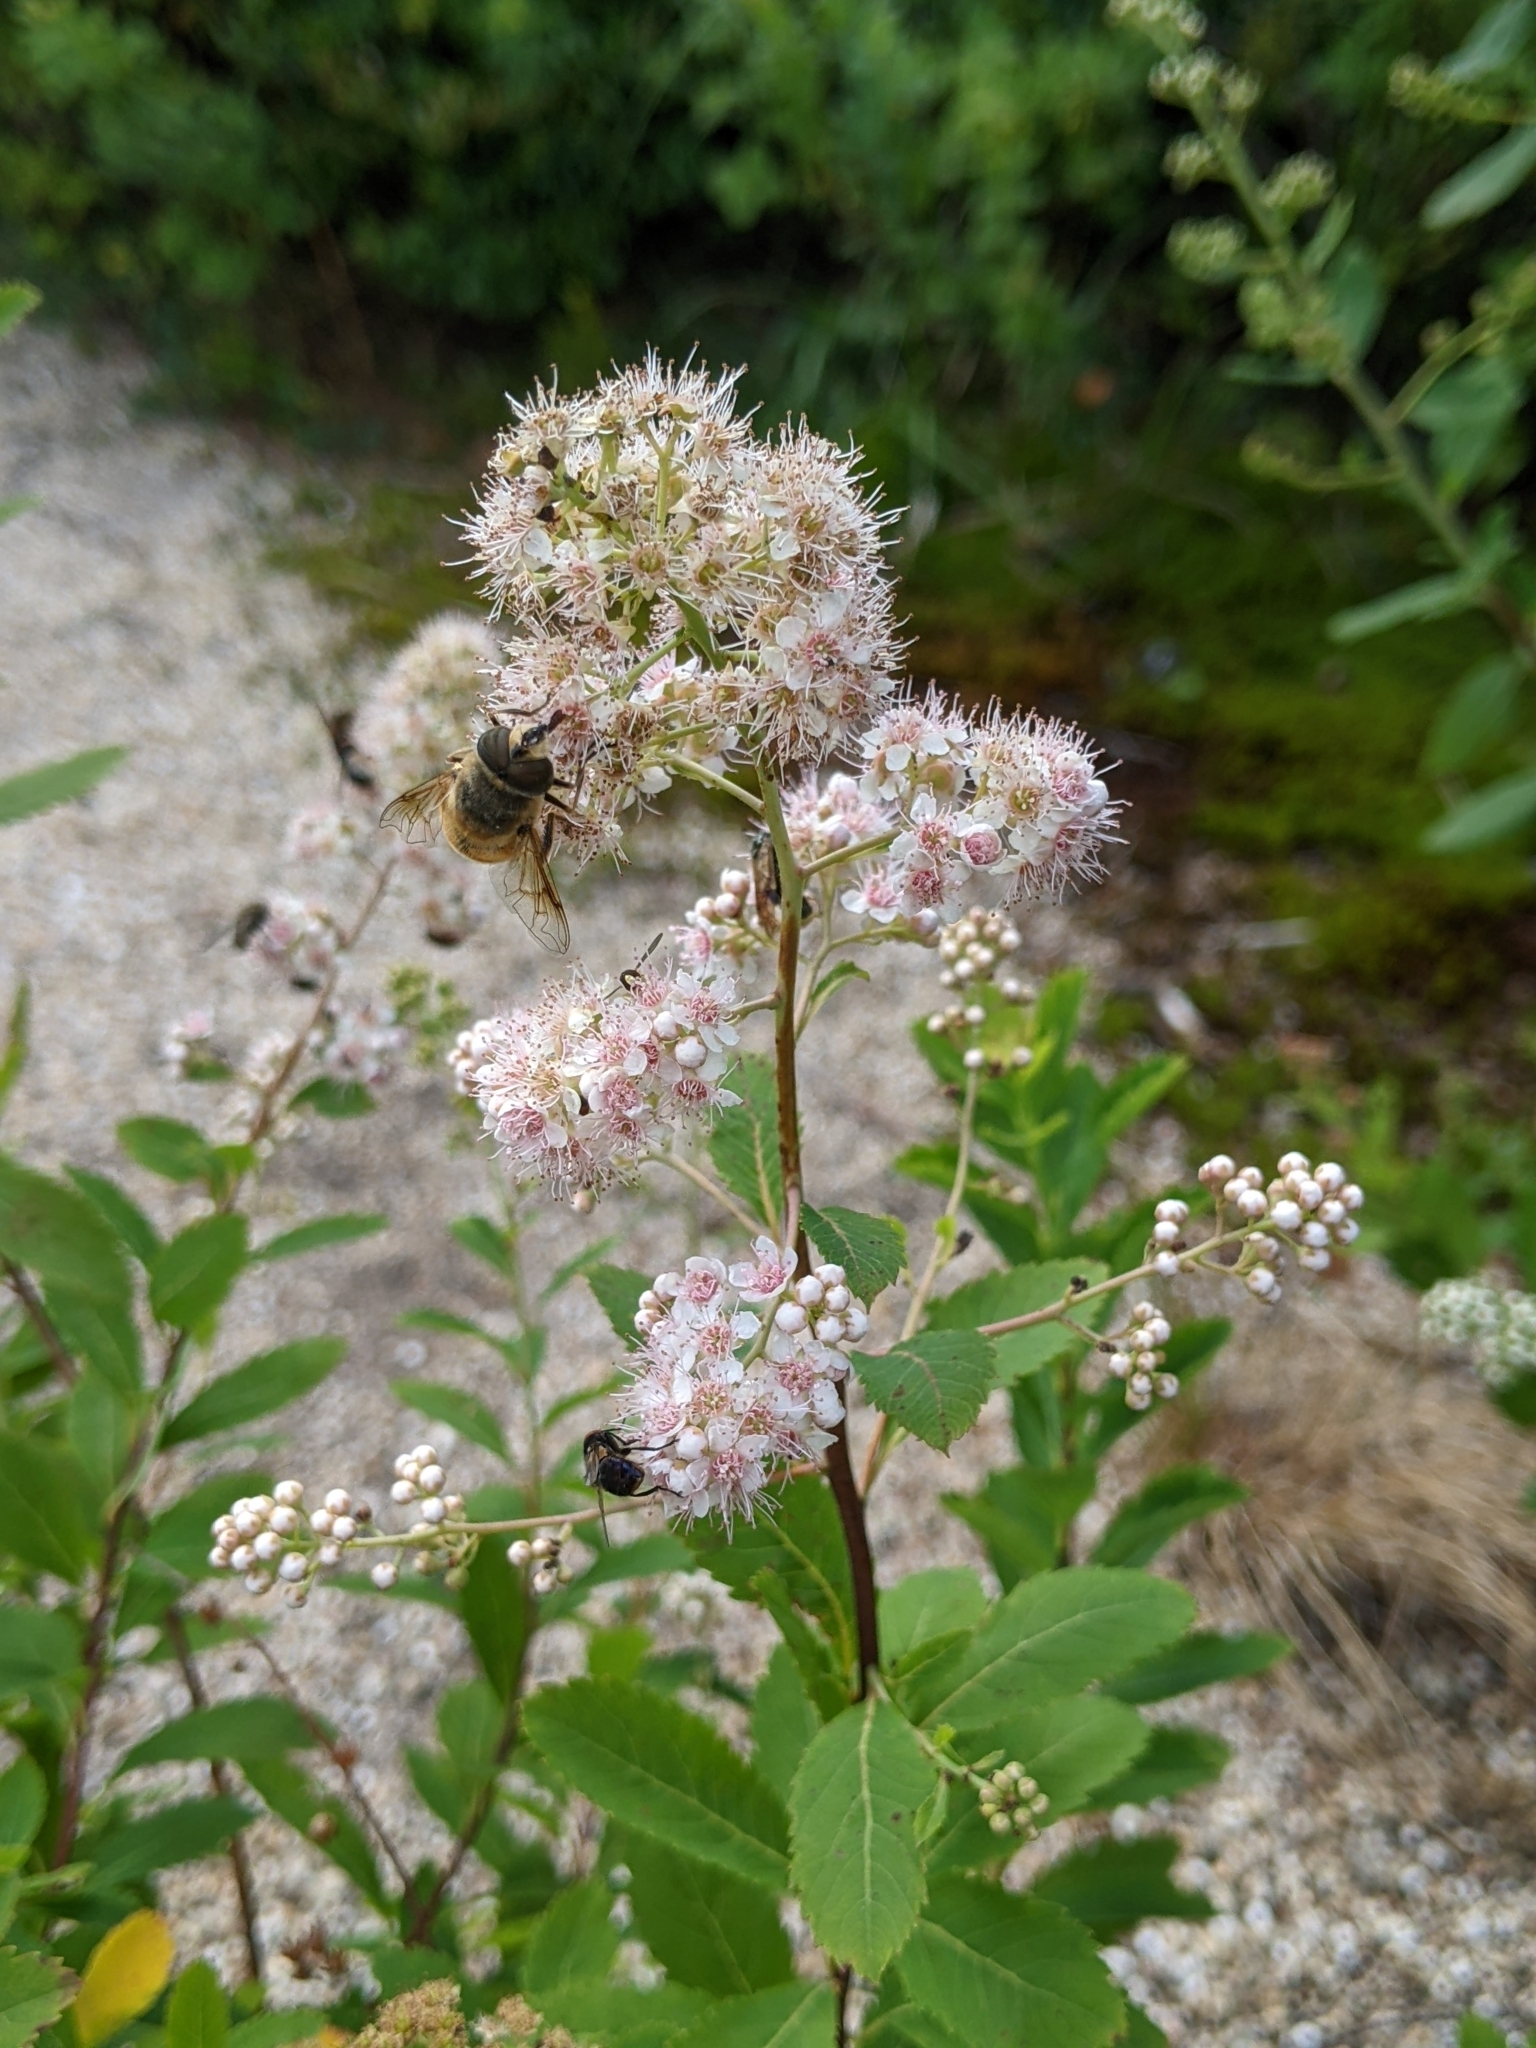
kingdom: Plantae
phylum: Tracheophyta
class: Magnoliopsida
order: Rosales
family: Rosaceae
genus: Spiraea
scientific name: Spiraea alba
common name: Pale bridewort
